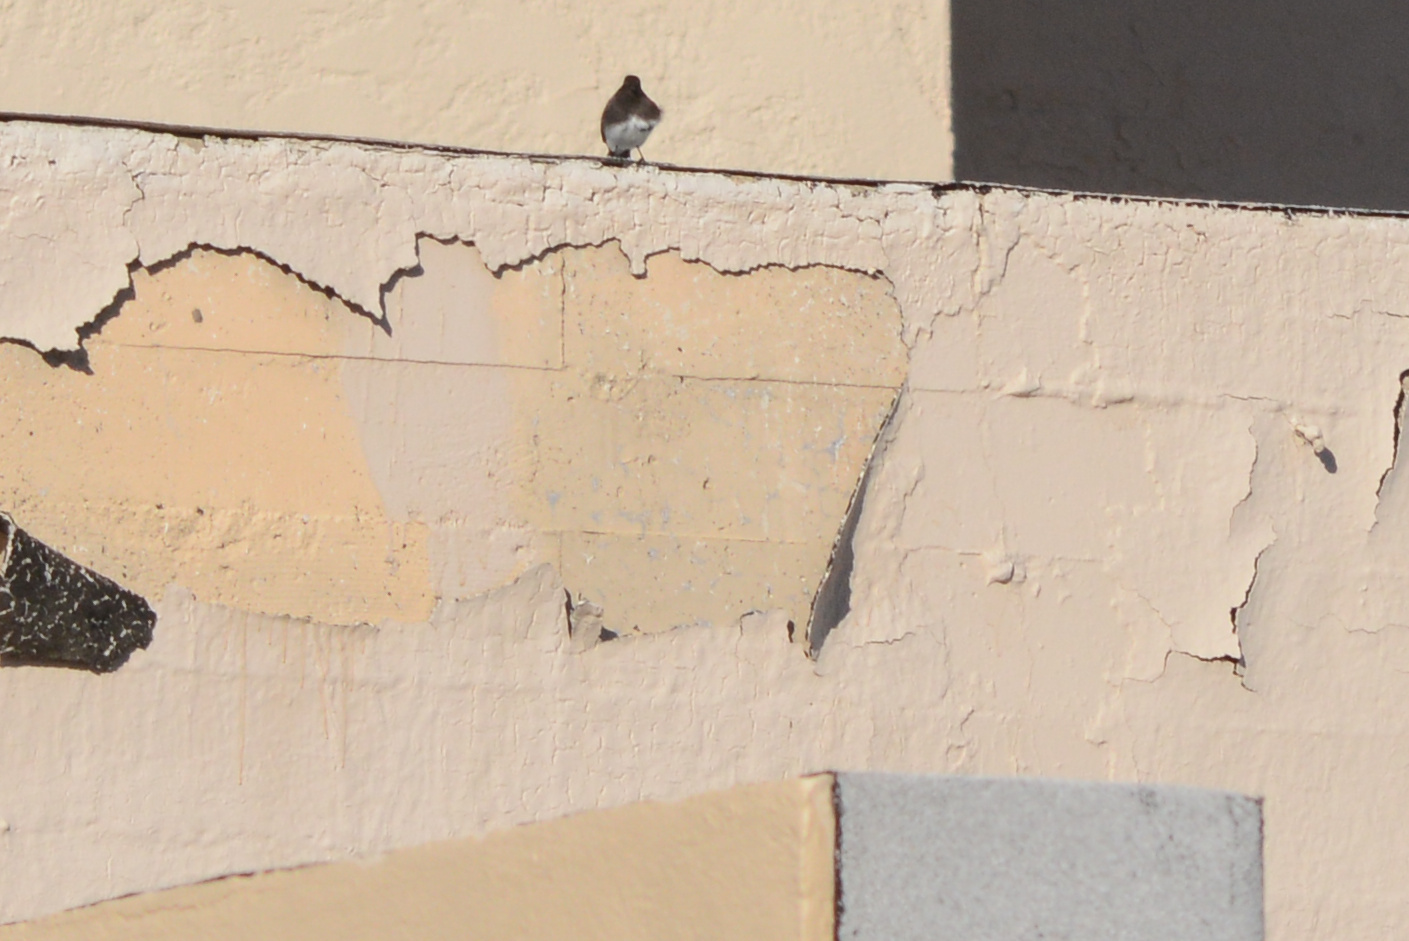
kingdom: Animalia
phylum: Chordata
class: Aves
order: Passeriformes
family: Tyrannidae
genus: Sayornis
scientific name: Sayornis nigricans
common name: Black phoebe
